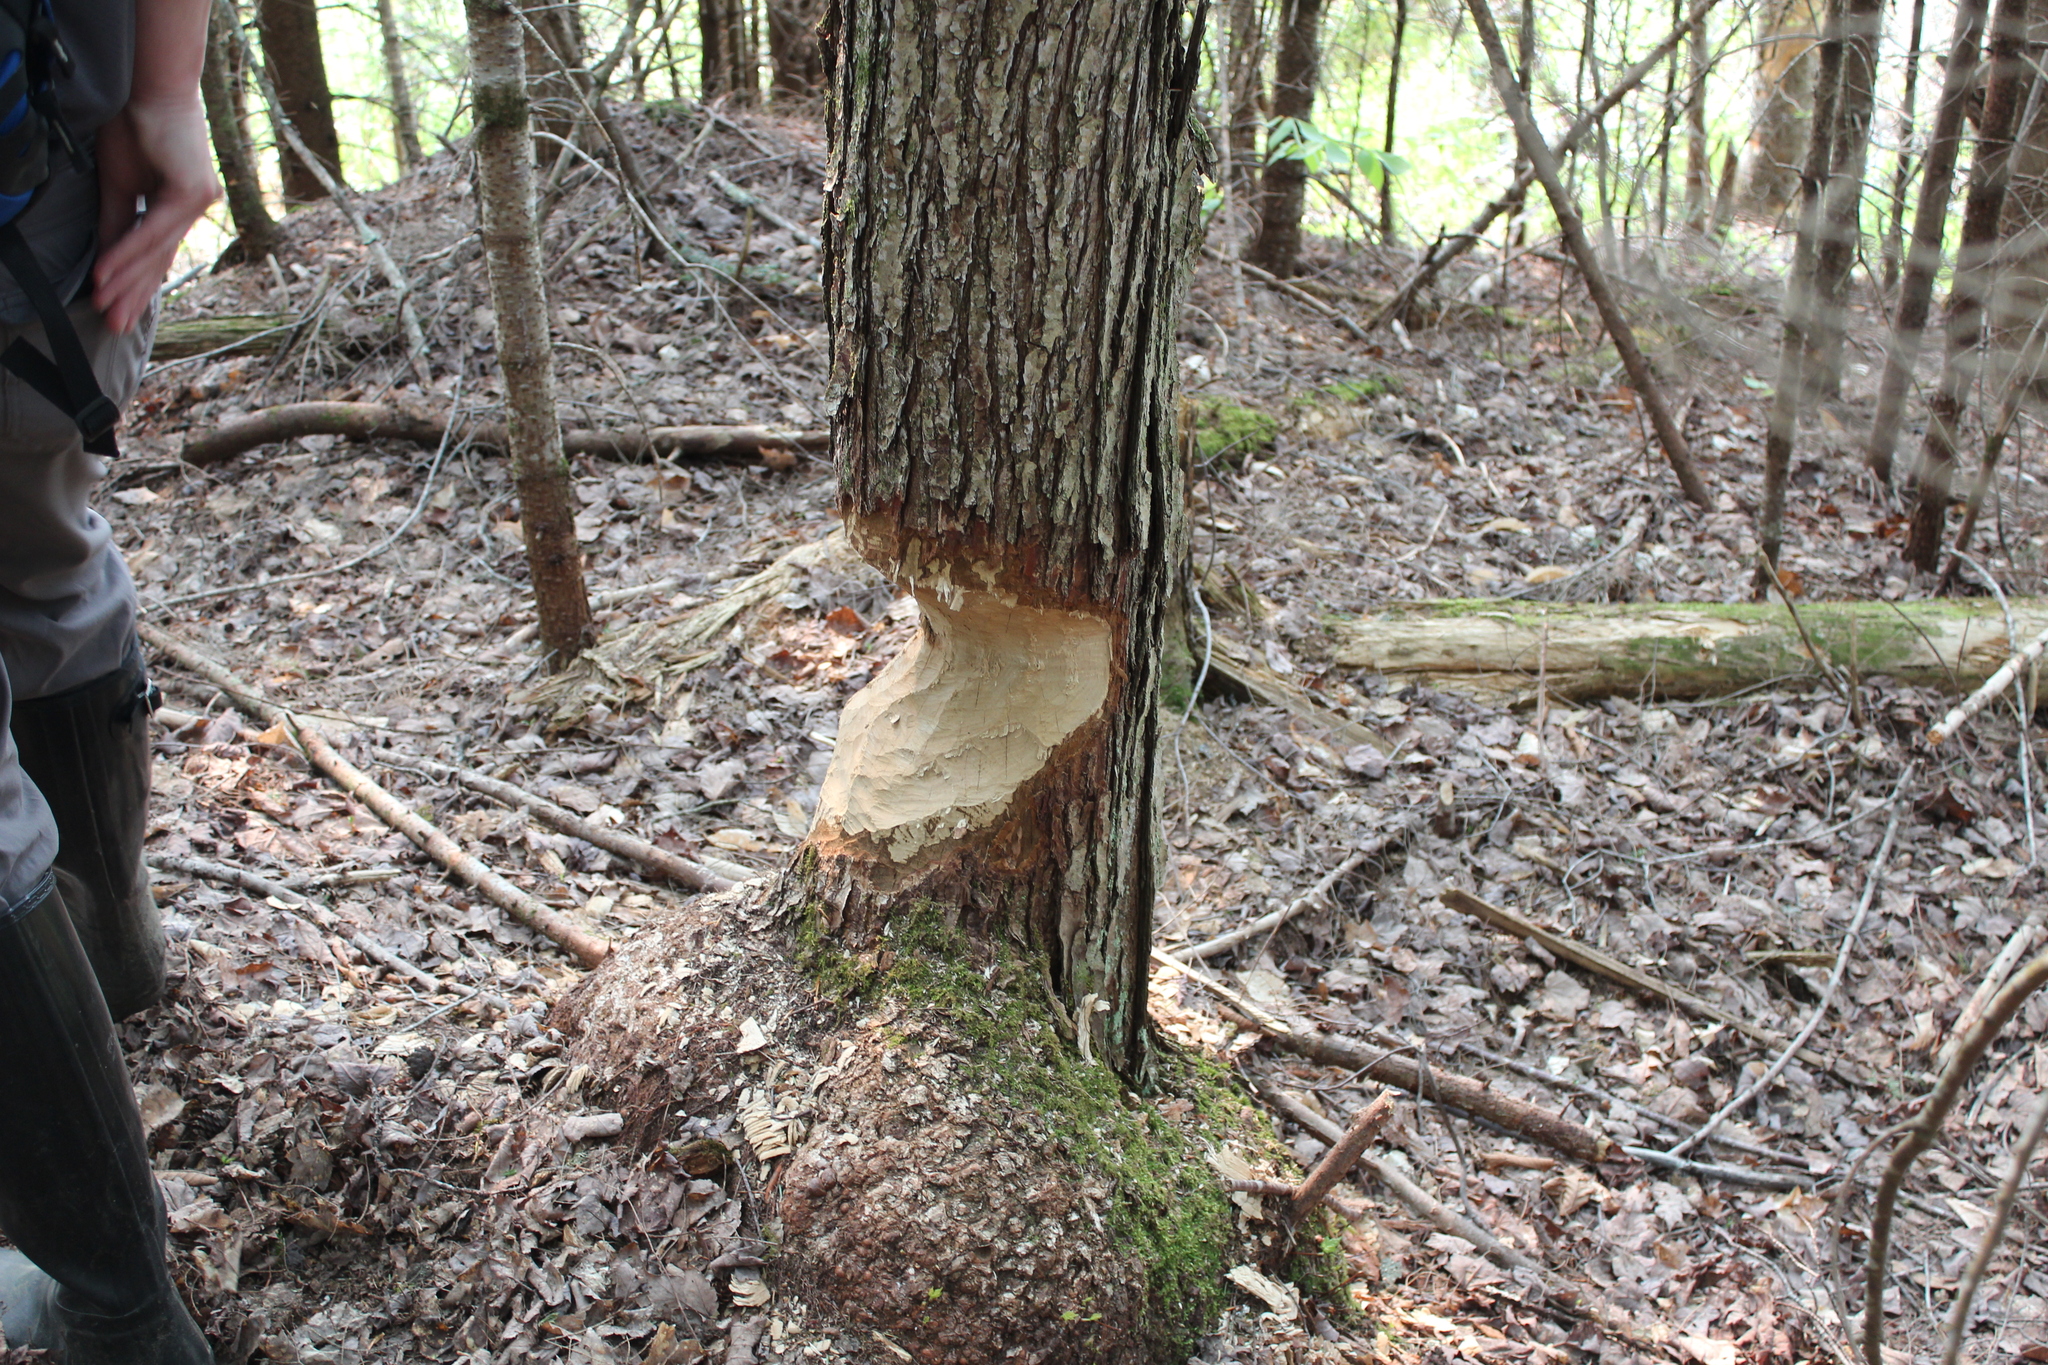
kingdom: Animalia
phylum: Chordata
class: Mammalia
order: Rodentia
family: Castoridae
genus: Castor
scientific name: Castor canadensis
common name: American beaver
